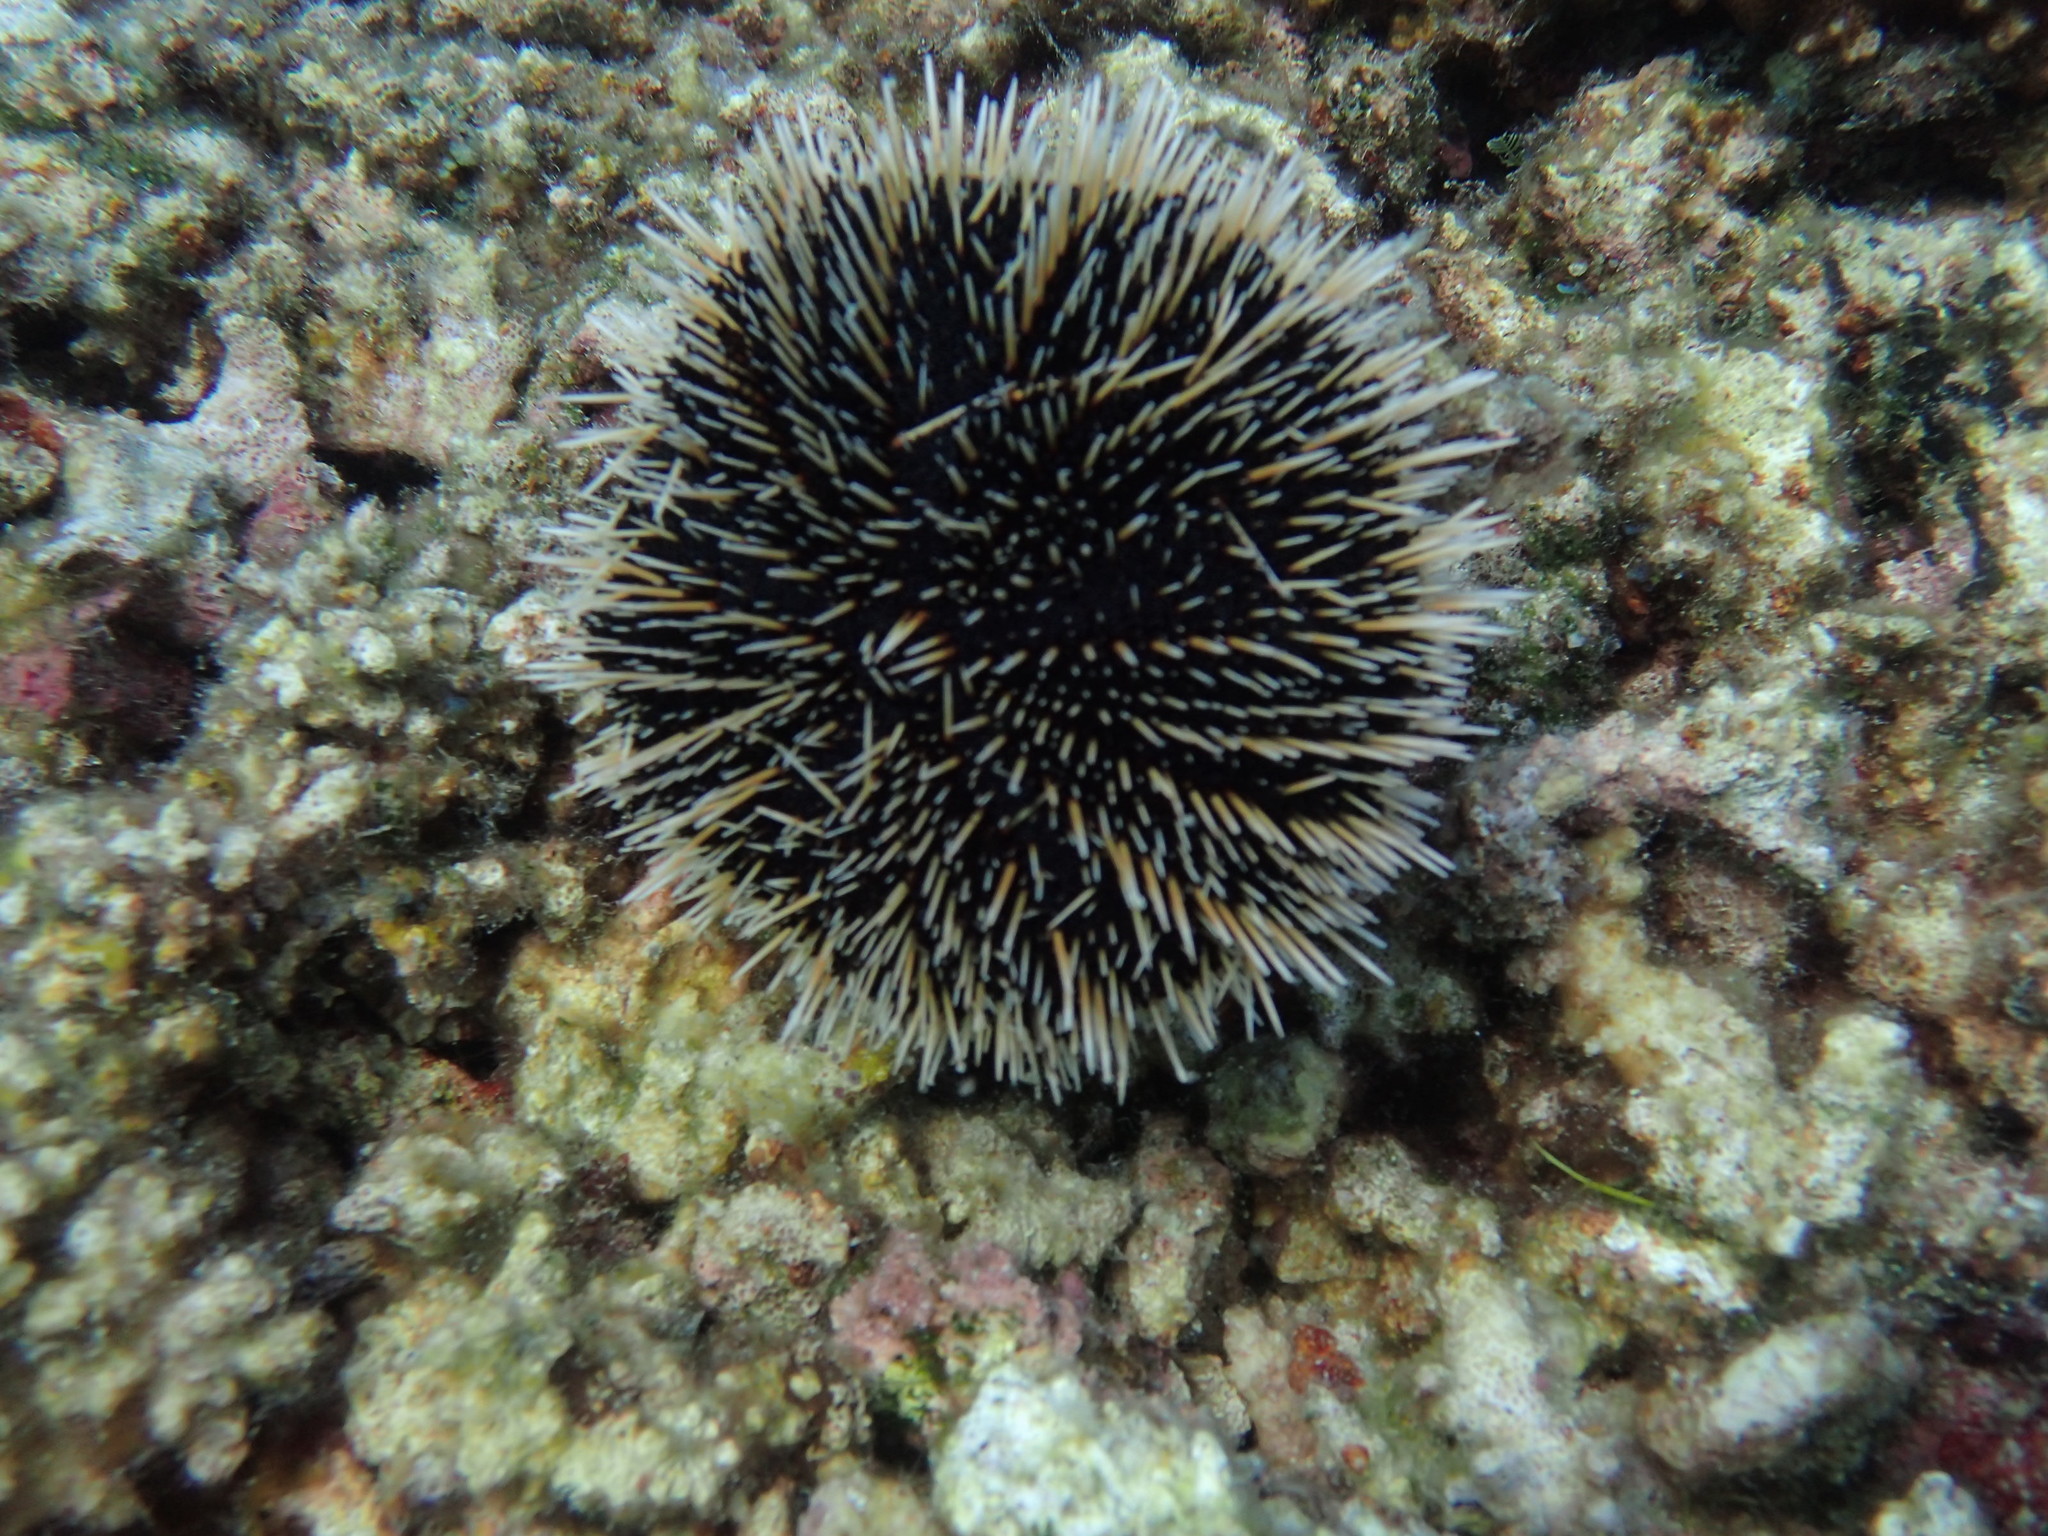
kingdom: Animalia
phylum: Echinodermata
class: Echinoidea
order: Camarodonta
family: Toxopneustidae
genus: Tripneustes
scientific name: Tripneustes depressus
